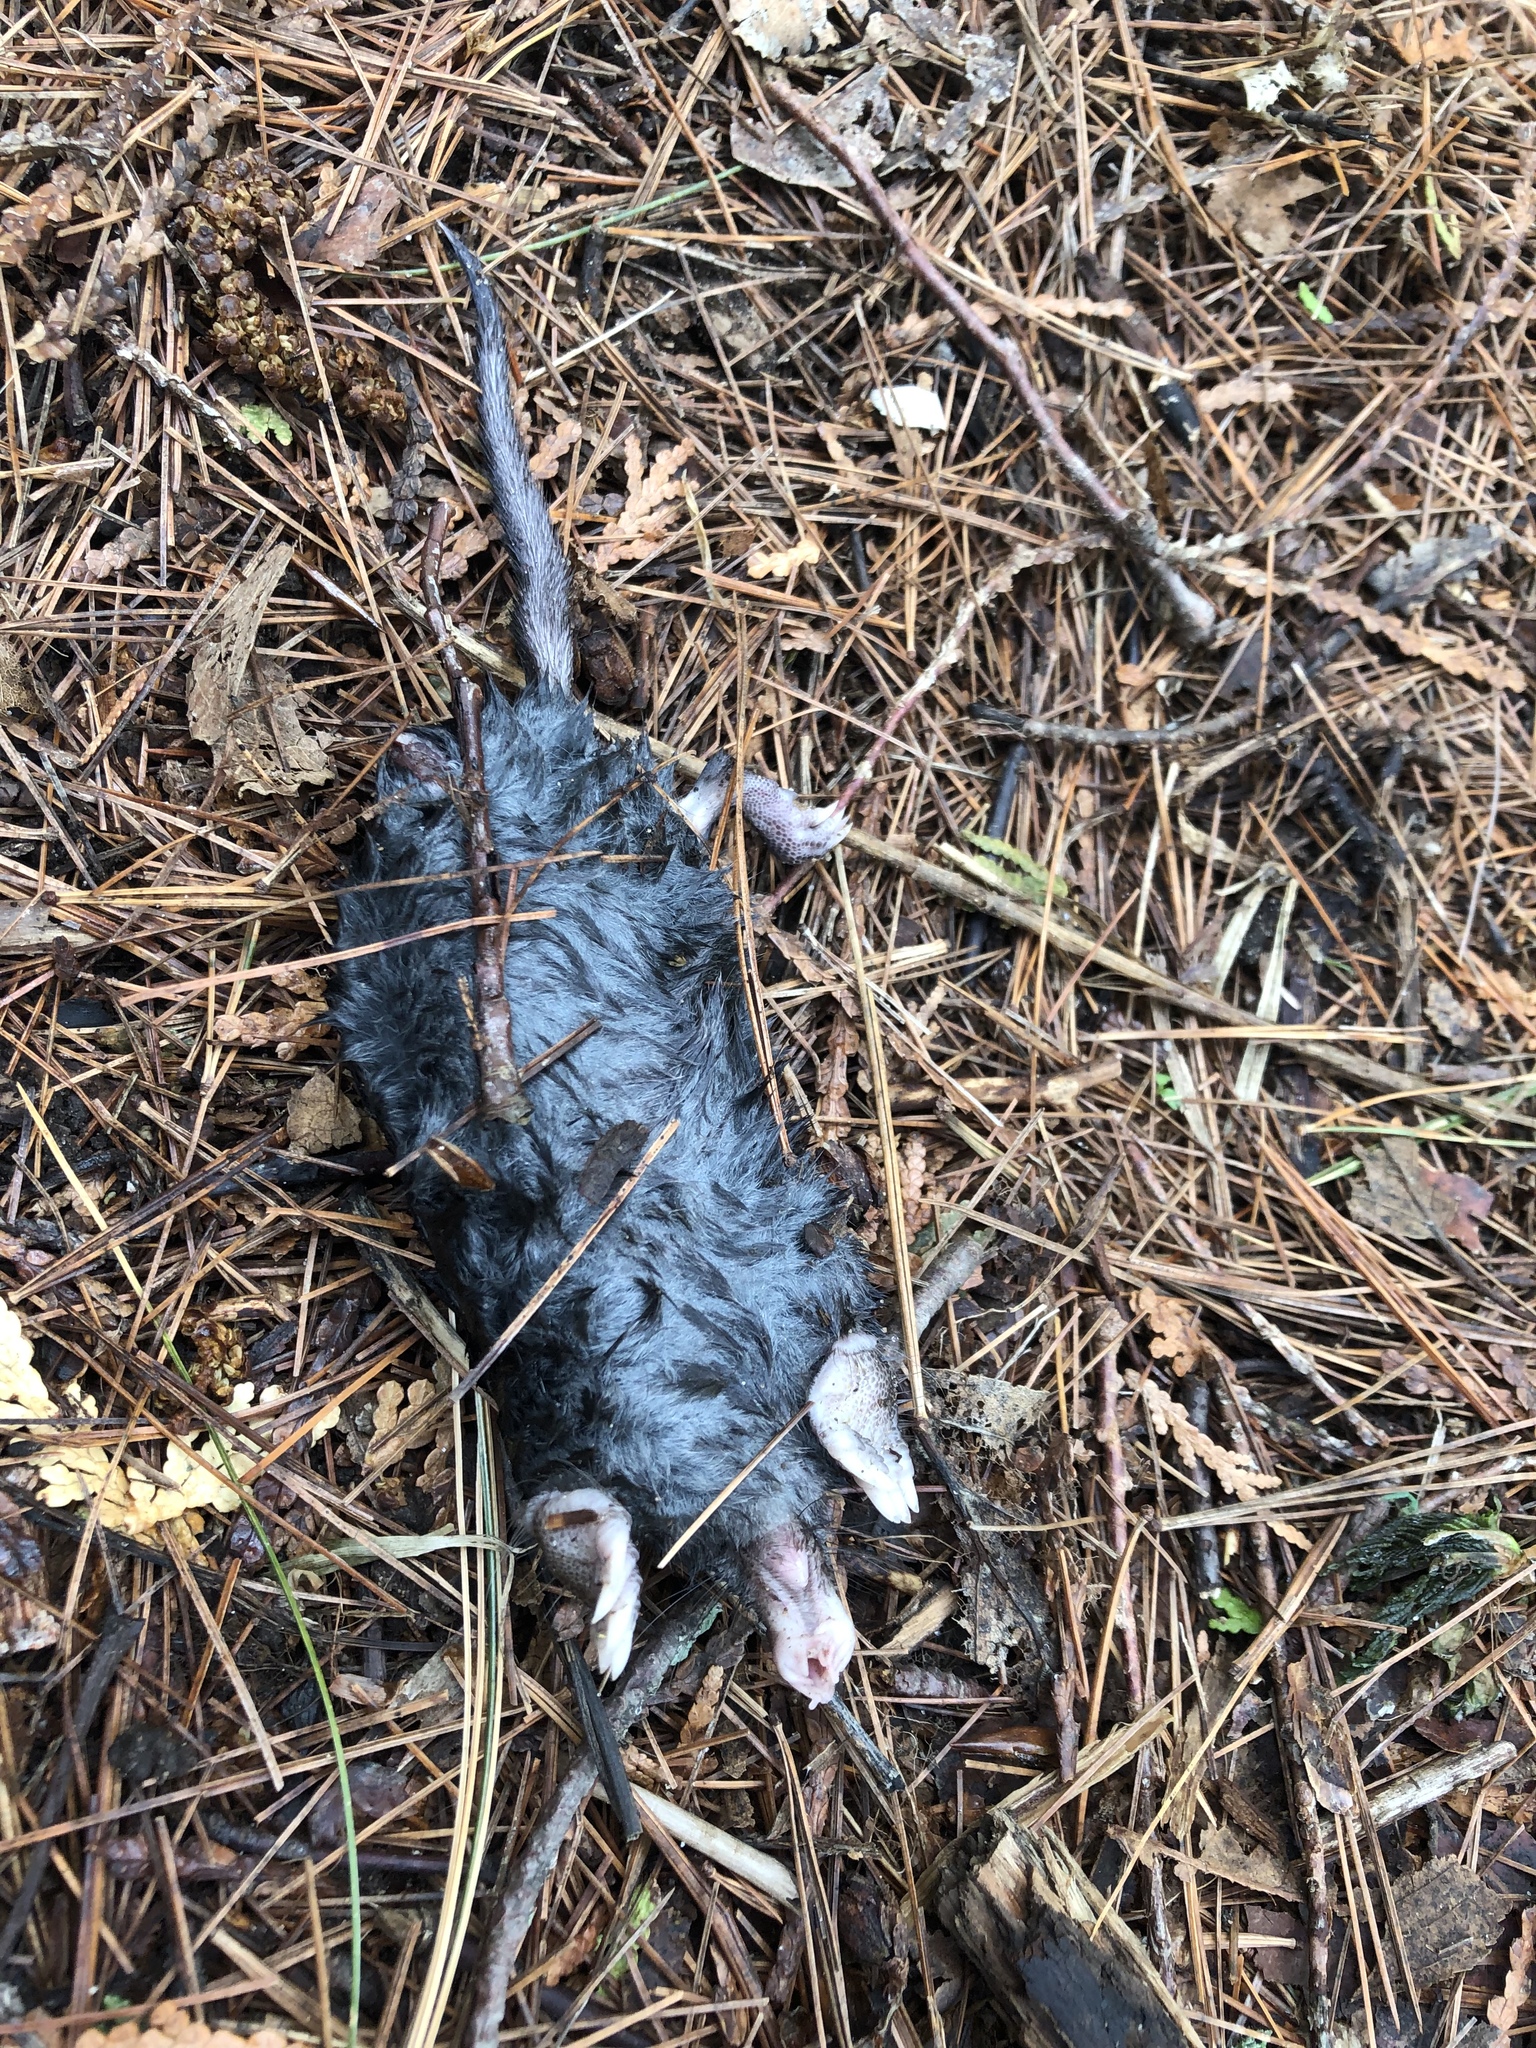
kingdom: Animalia
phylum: Chordata
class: Mammalia
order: Soricomorpha
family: Talpidae
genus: Condylura
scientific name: Condylura cristata
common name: Star-nosed mole
